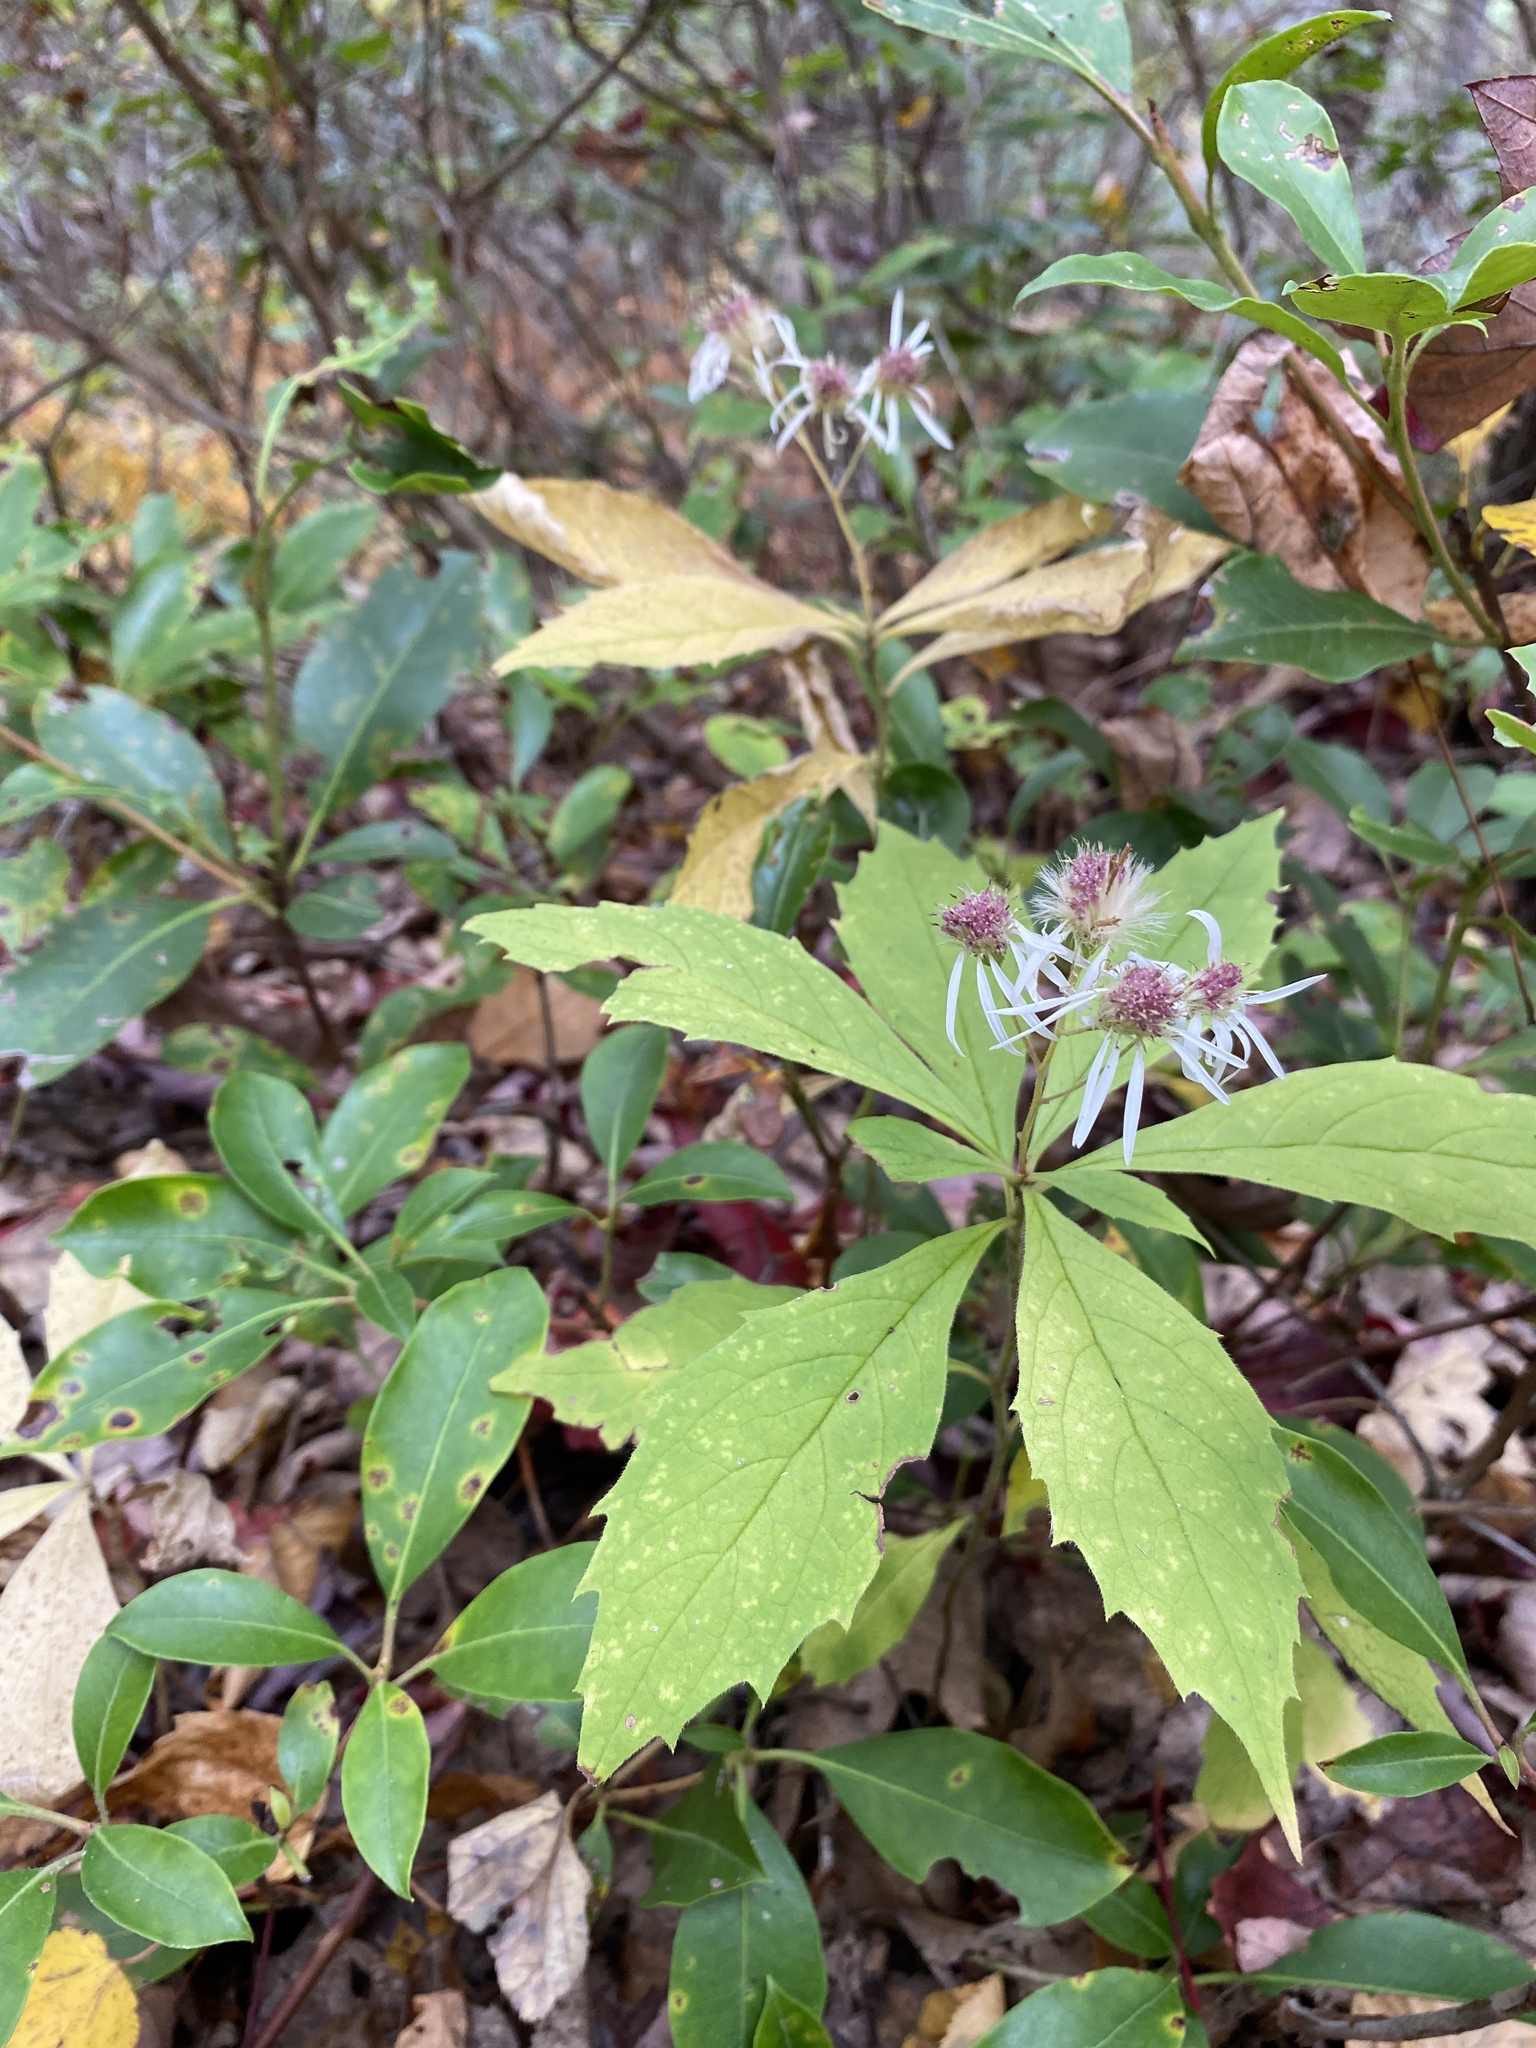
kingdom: Plantae
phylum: Tracheophyta
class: Magnoliopsida
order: Asterales
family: Asteraceae
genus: Oclemena
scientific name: Oclemena acuminata
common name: Mountain aster
